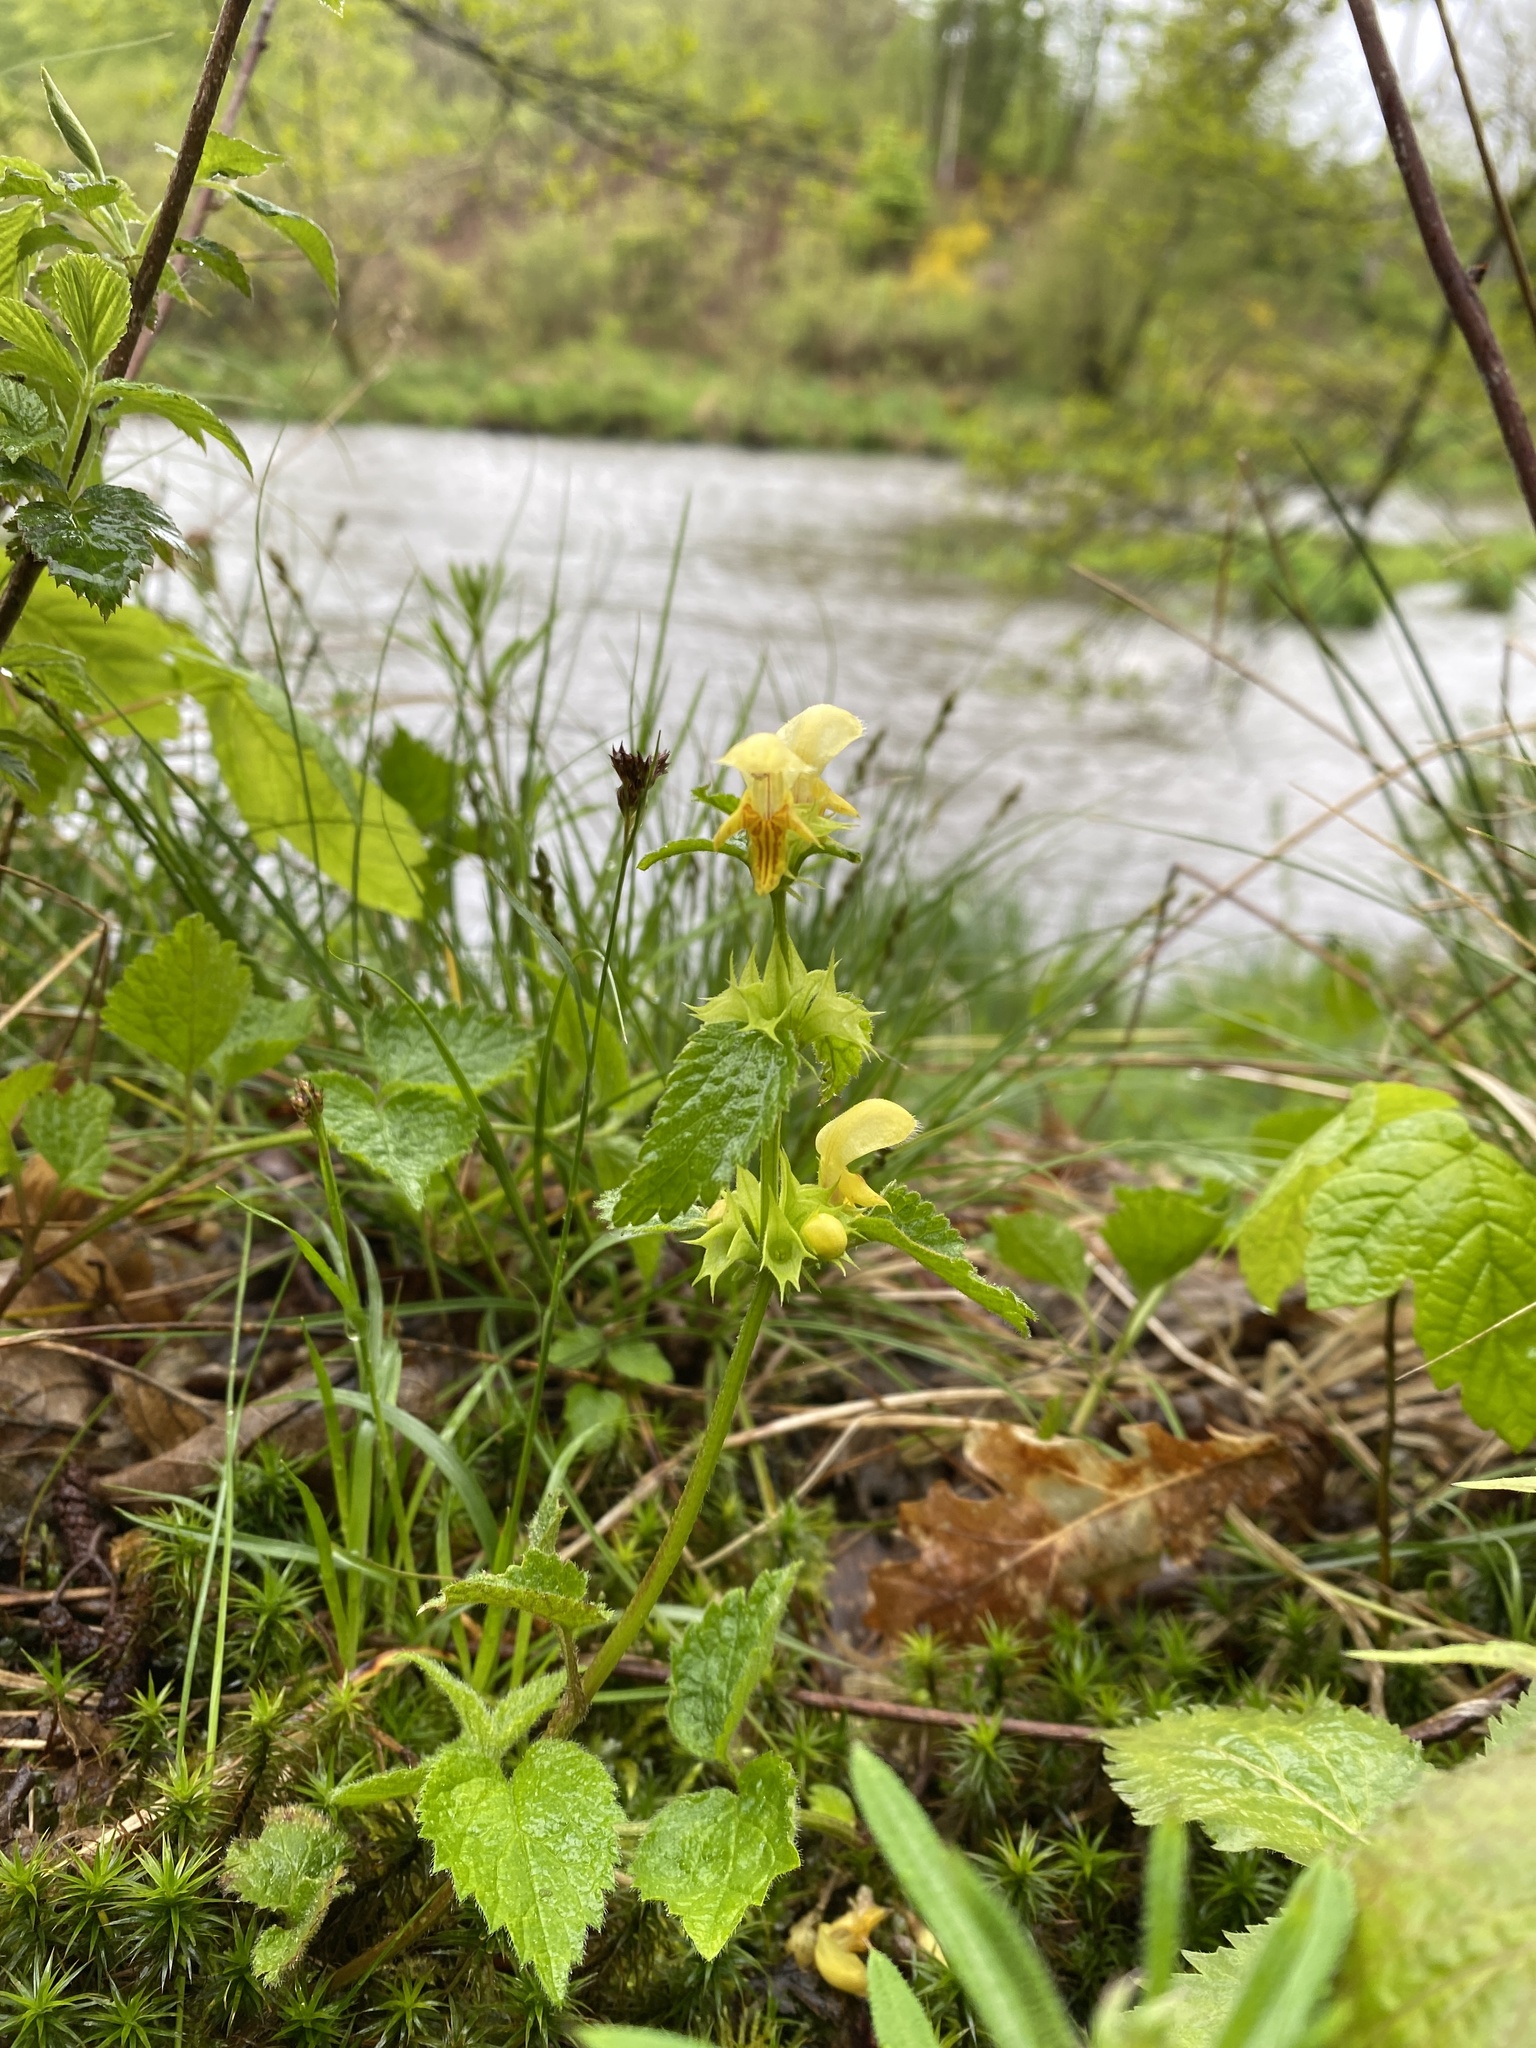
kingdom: Plantae
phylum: Tracheophyta
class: Magnoliopsida
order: Lamiales
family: Lamiaceae
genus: Lamium
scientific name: Lamium galeobdolon
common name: Yellow archangel
